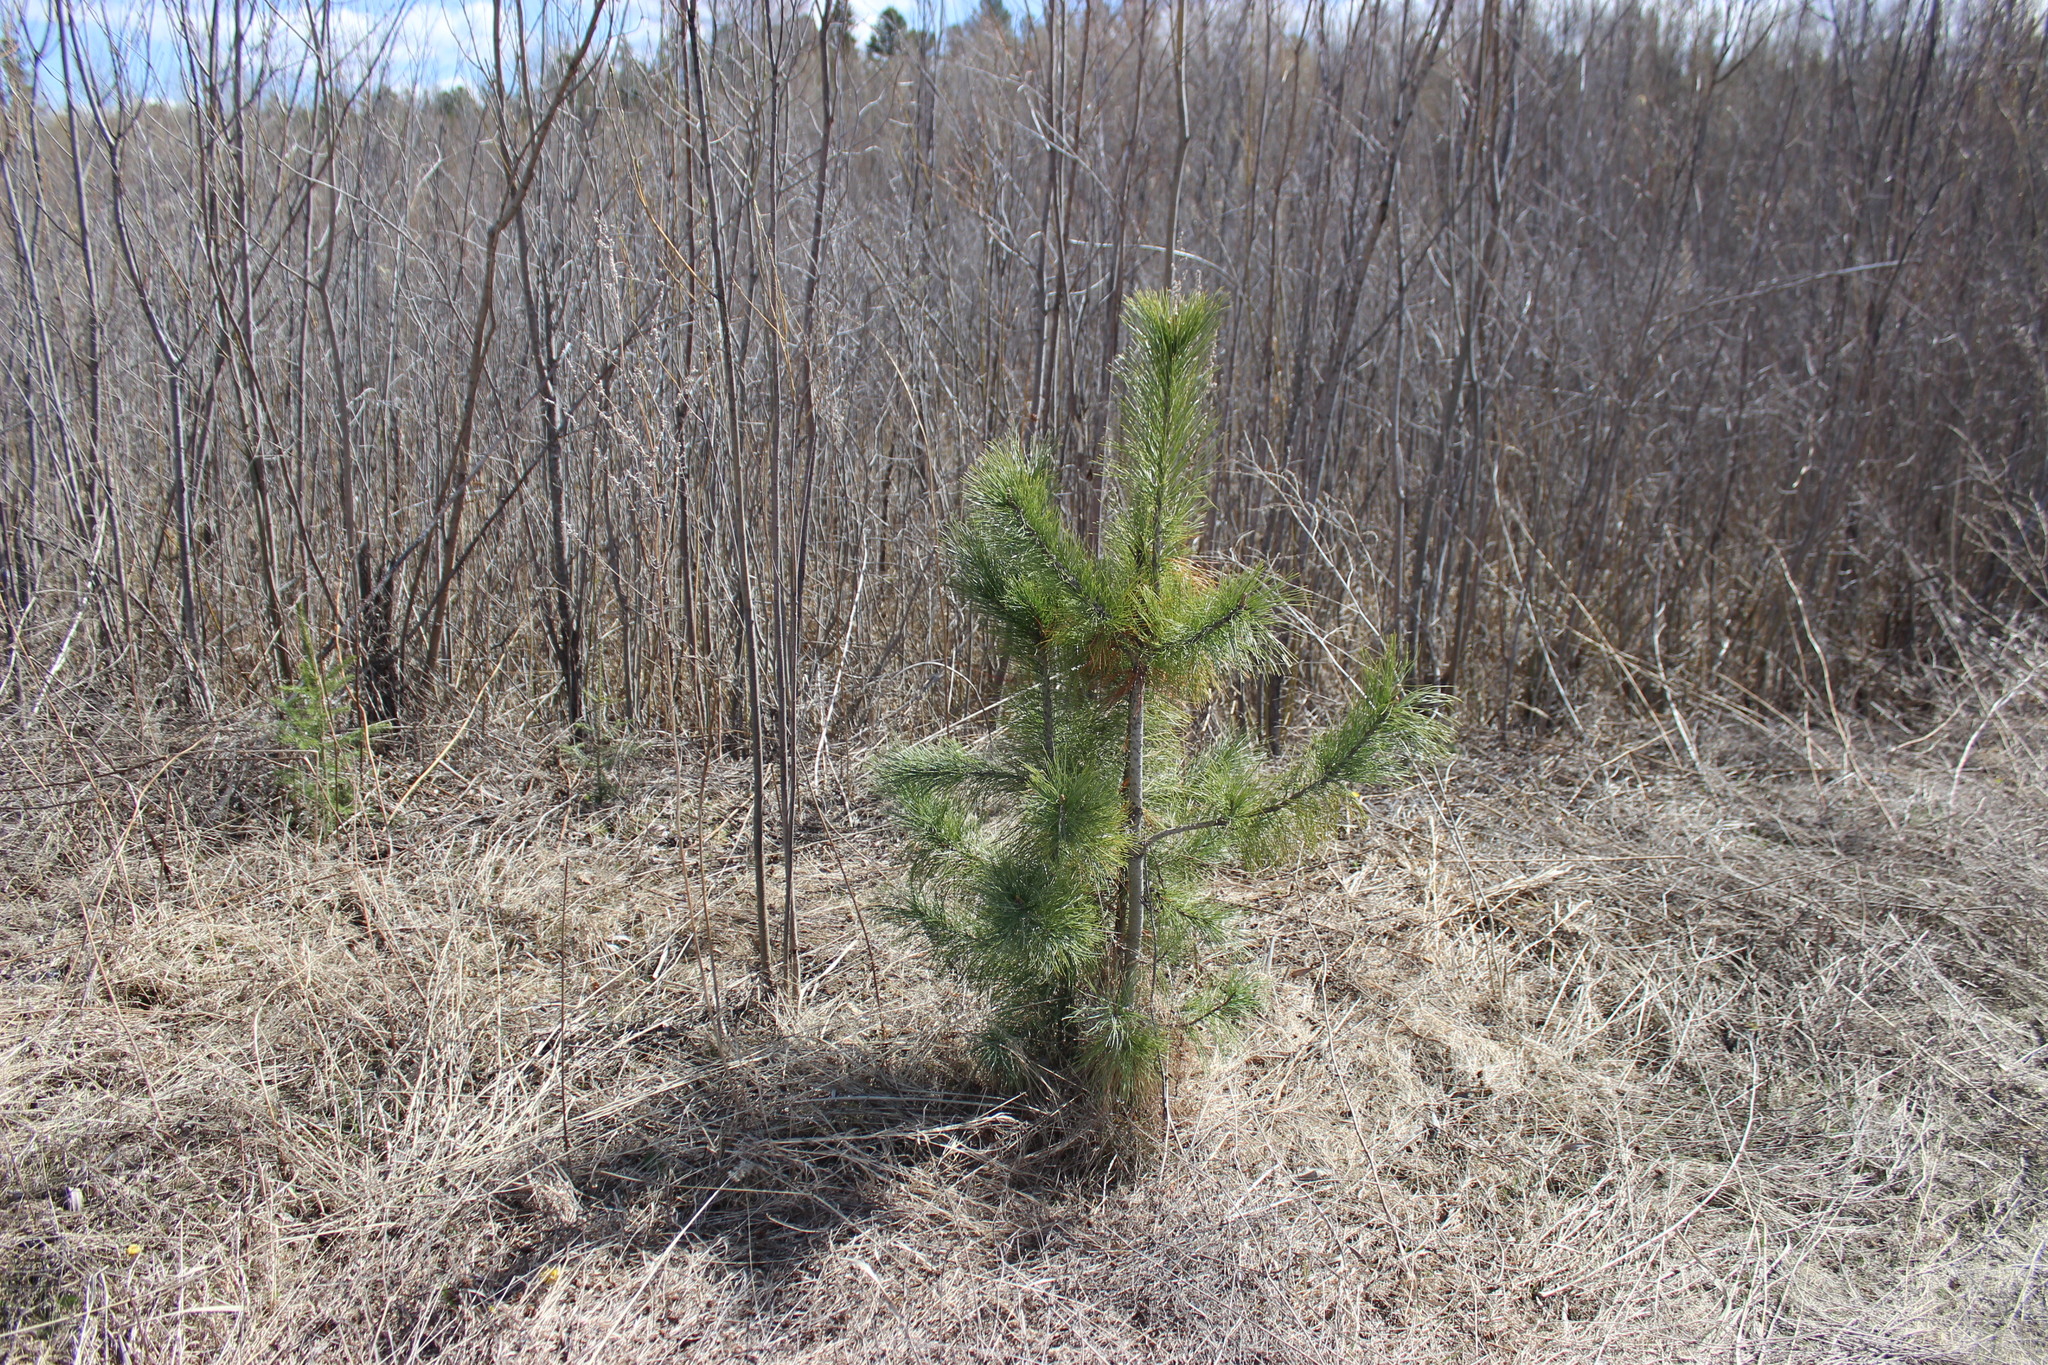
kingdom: Plantae
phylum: Tracheophyta
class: Pinopsida
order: Pinales
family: Pinaceae
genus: Pinus
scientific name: Pinus sylvestris
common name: Scots pine
